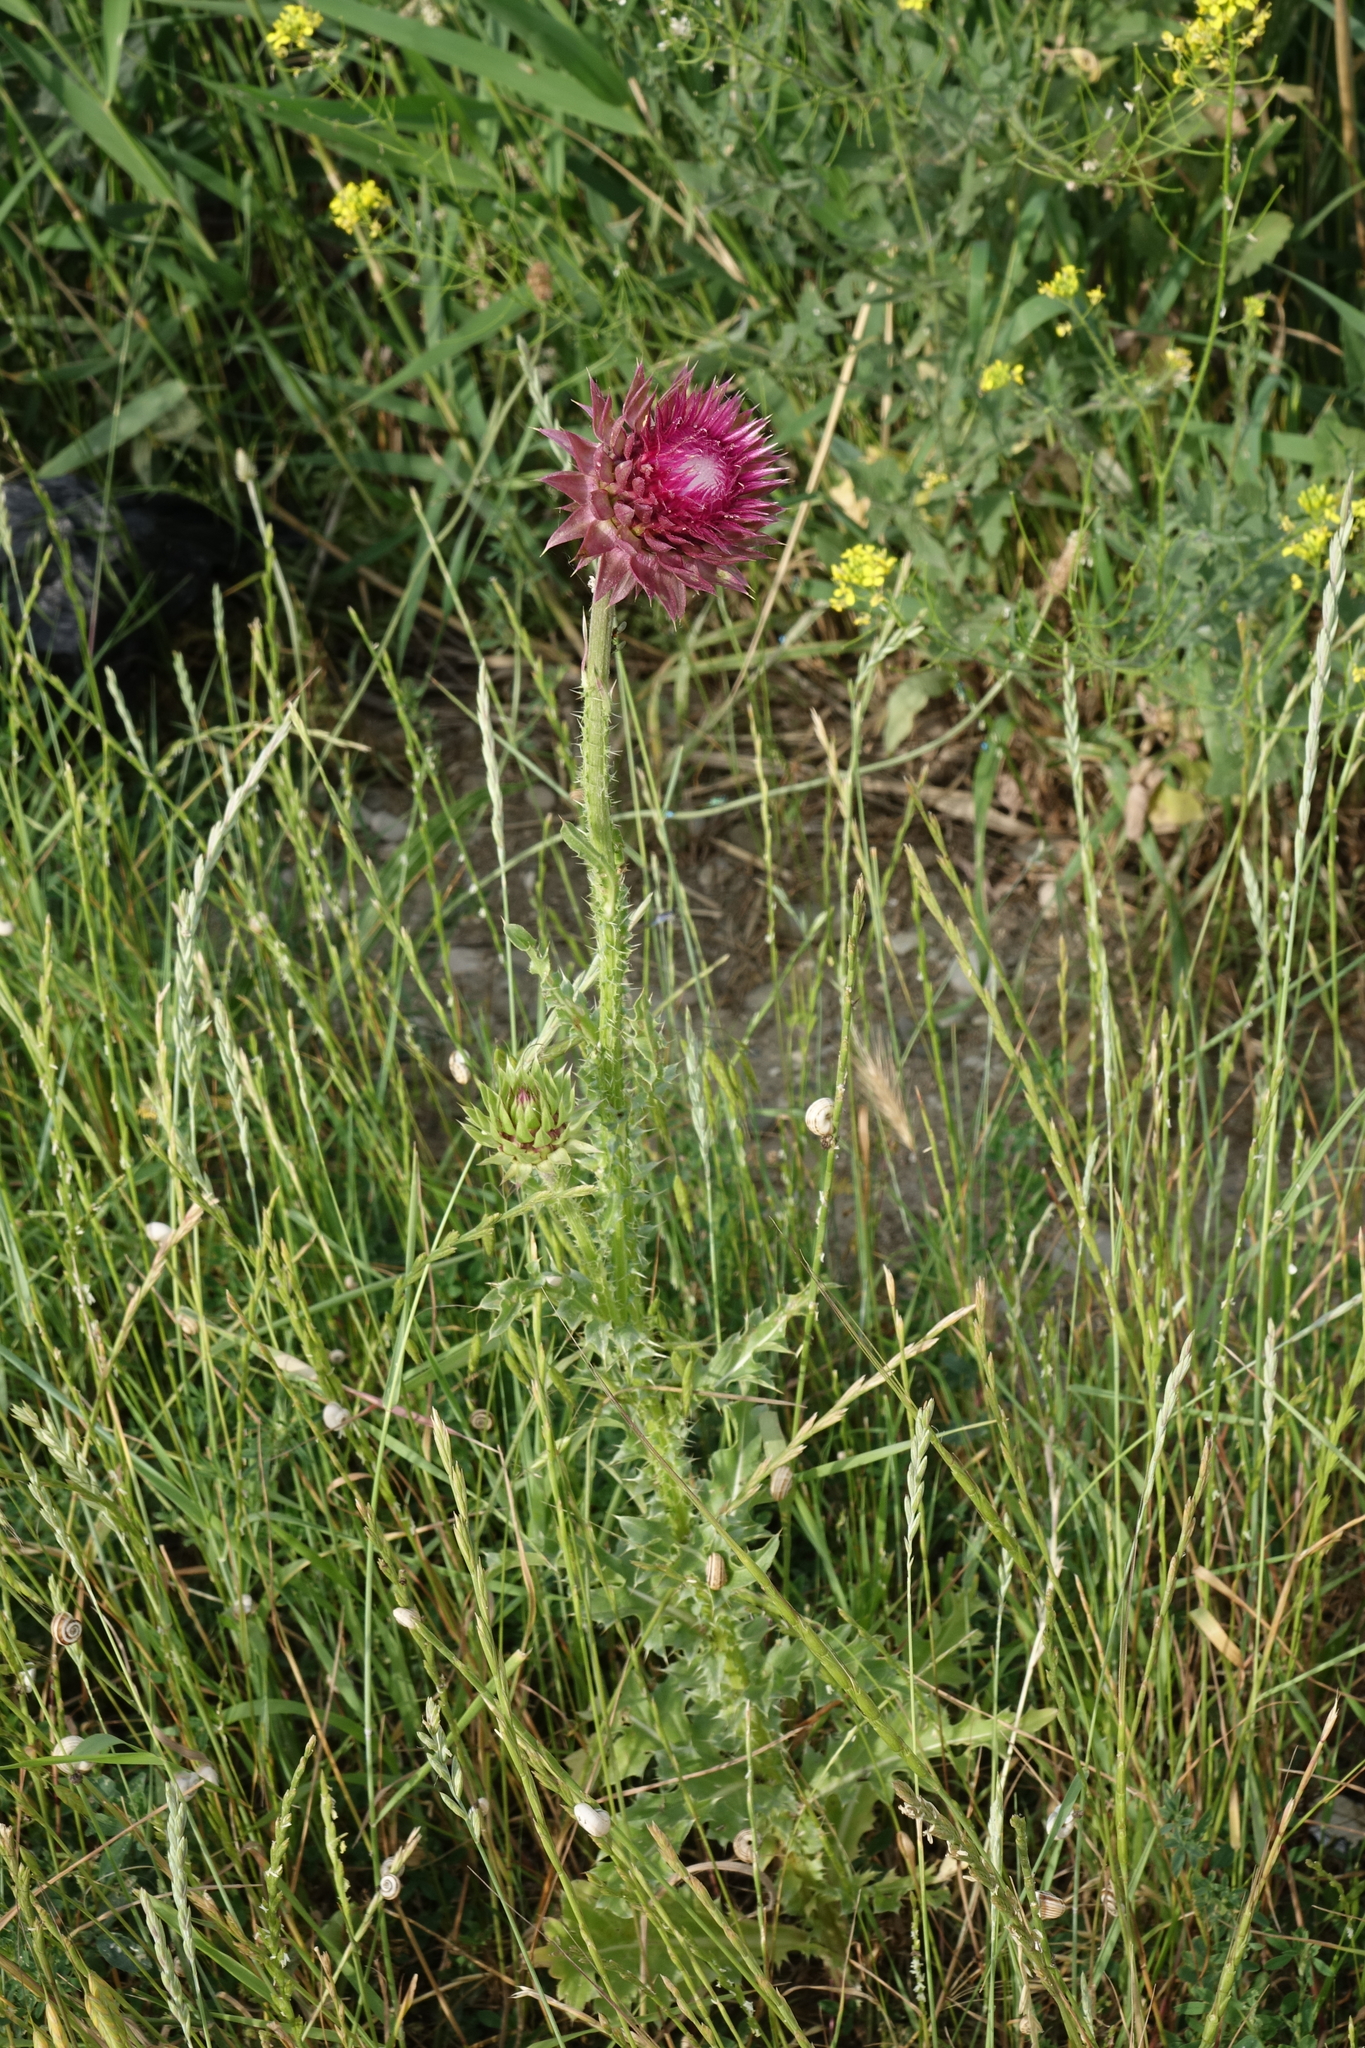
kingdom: Plantae
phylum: Tracheophyta
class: Magnoliopsida
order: Asterales
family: Asteraceae
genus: Carduus
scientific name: Carduus nutans
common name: Musk thistle
